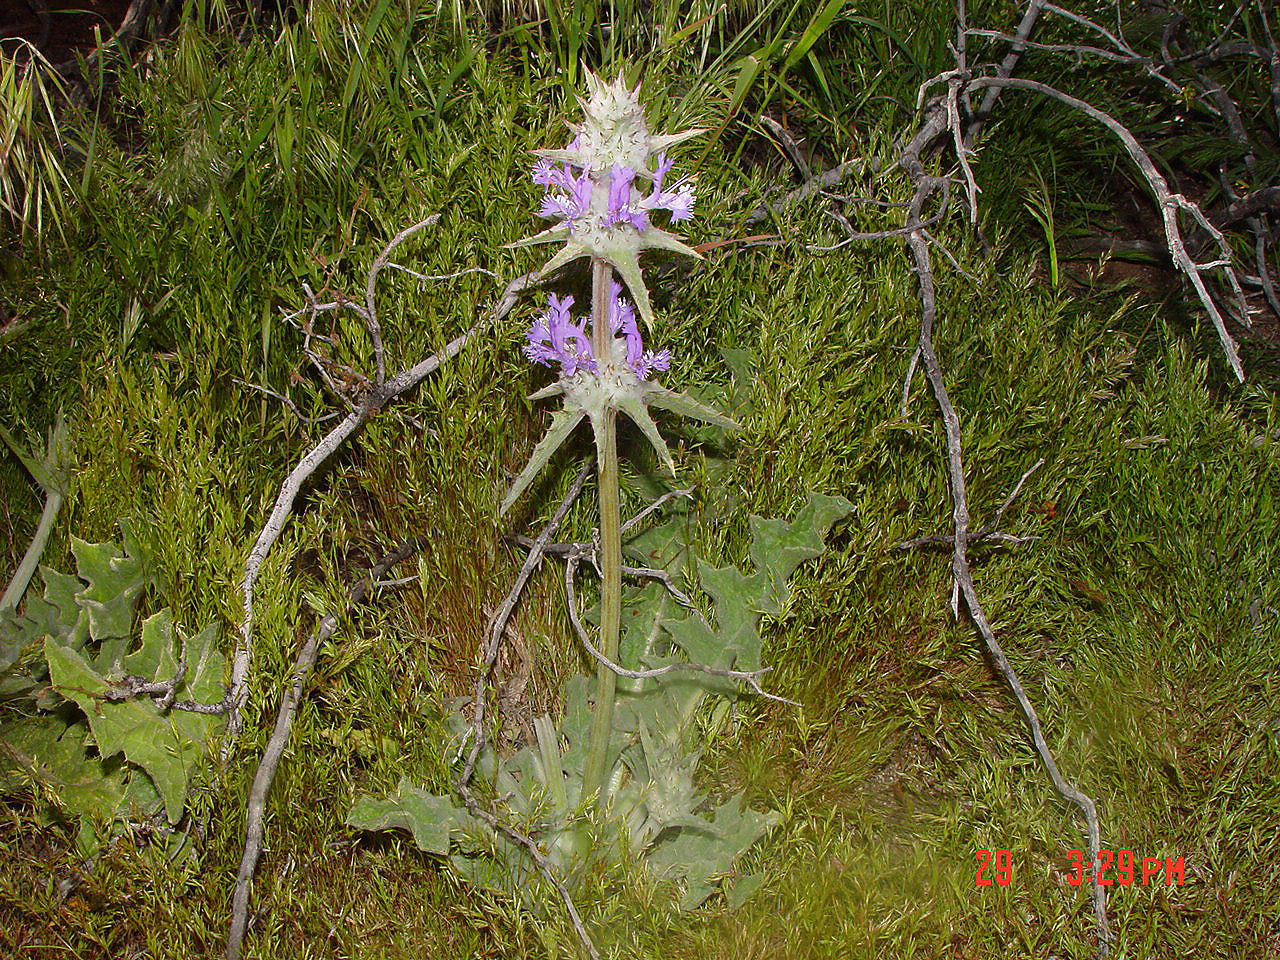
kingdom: Plantae
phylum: Tracheophyta
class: Magnoliopsida
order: Lamiales
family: Lamiaceae
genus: Salvia
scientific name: Salvia carduacea
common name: Thistle sage
